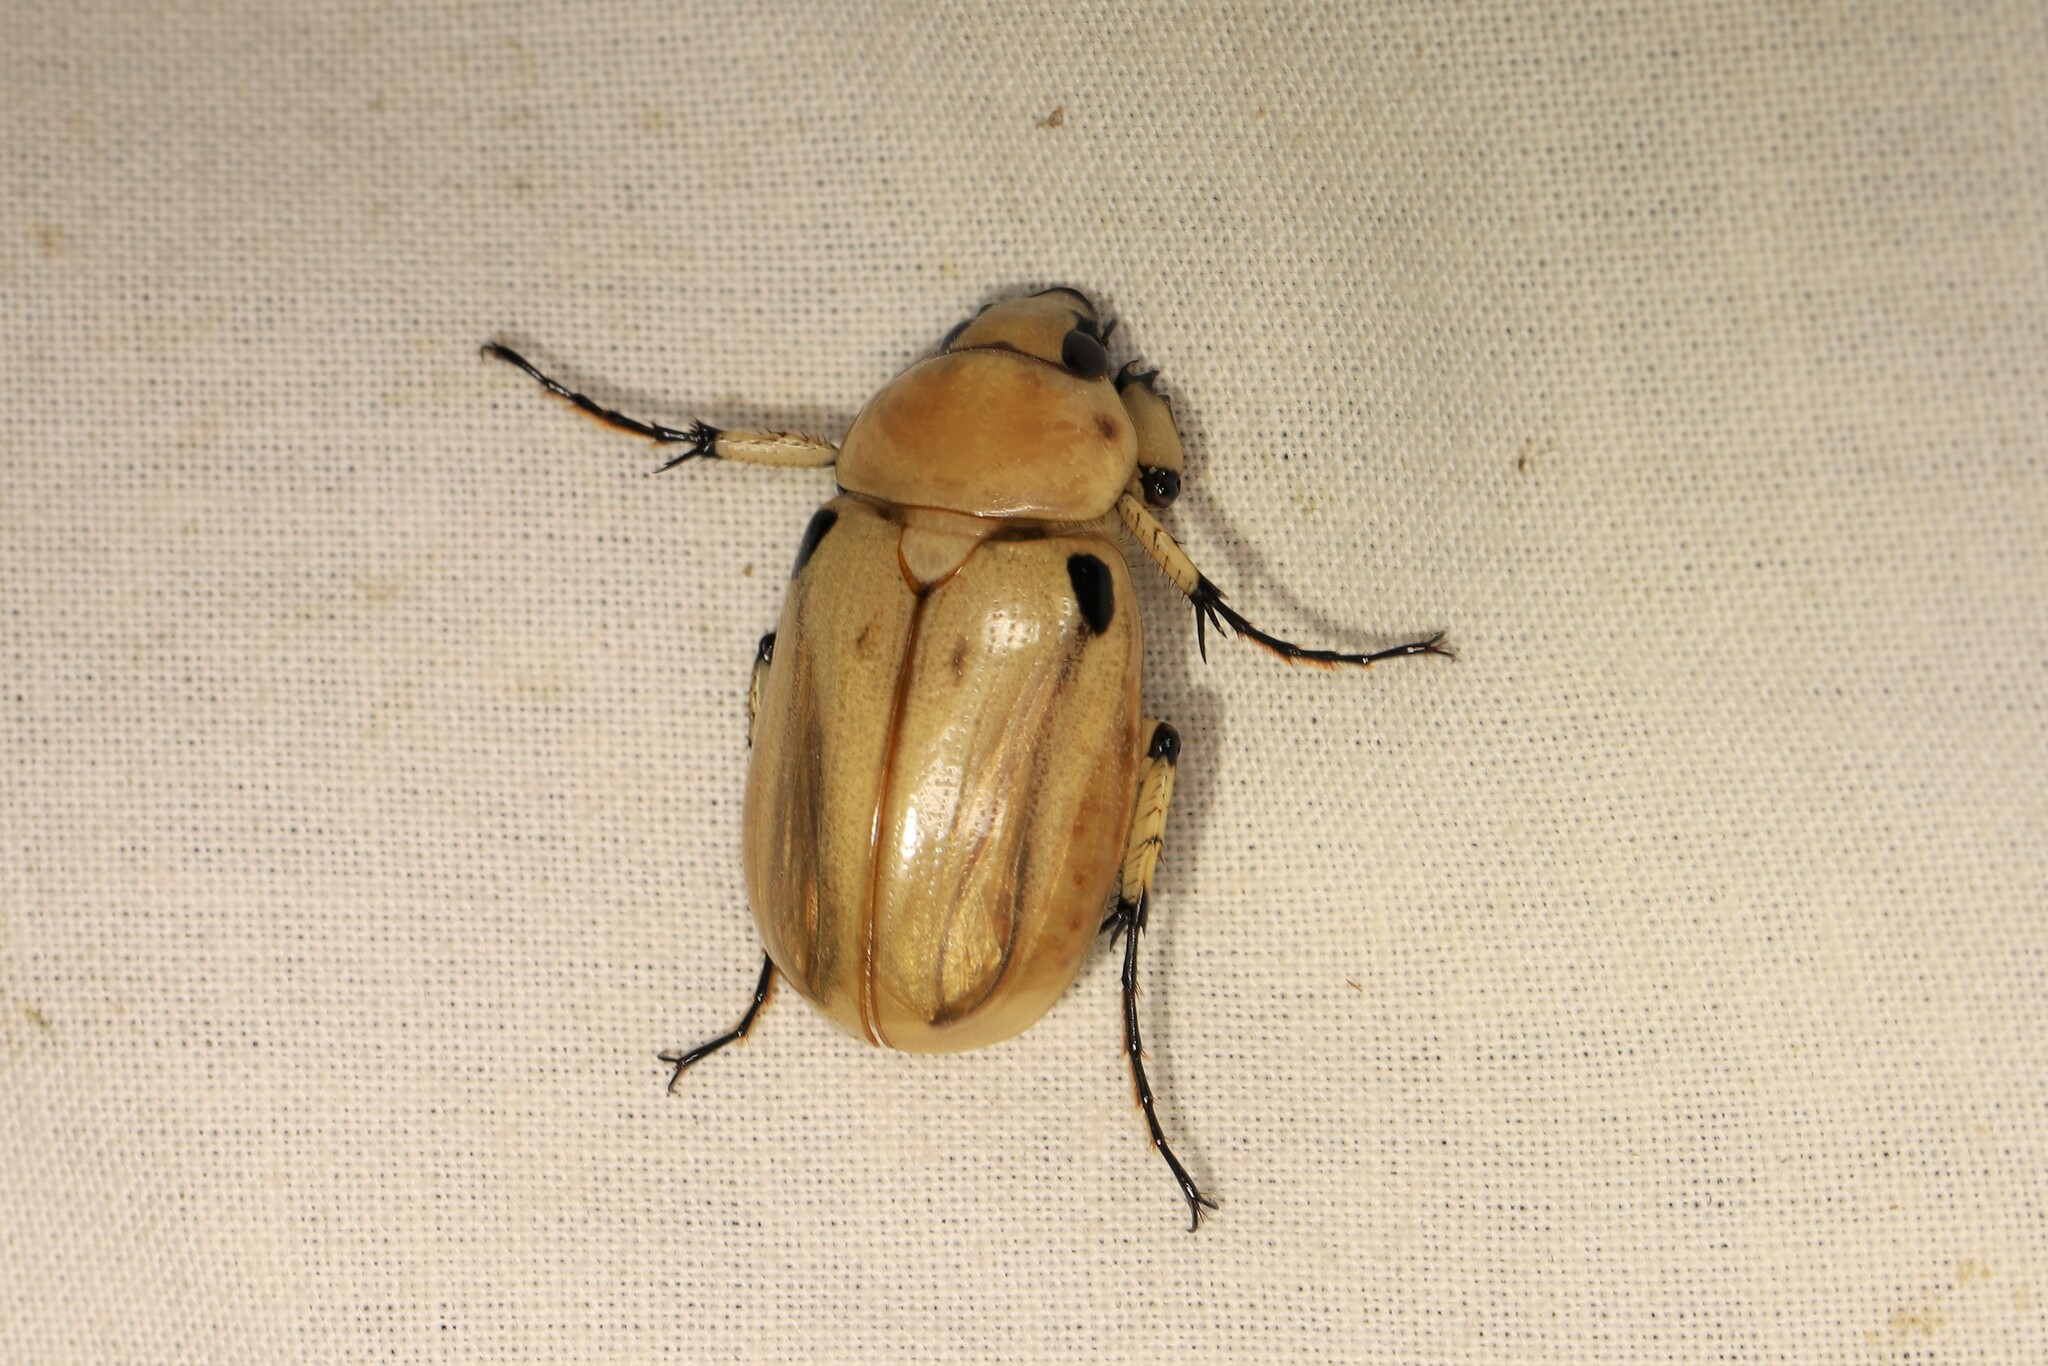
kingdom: Animalia
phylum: Arthropoda
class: Insecta
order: Coleoptera
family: Scarabaeidae
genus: Ancognatha
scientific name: Ancognatha vulgaris
